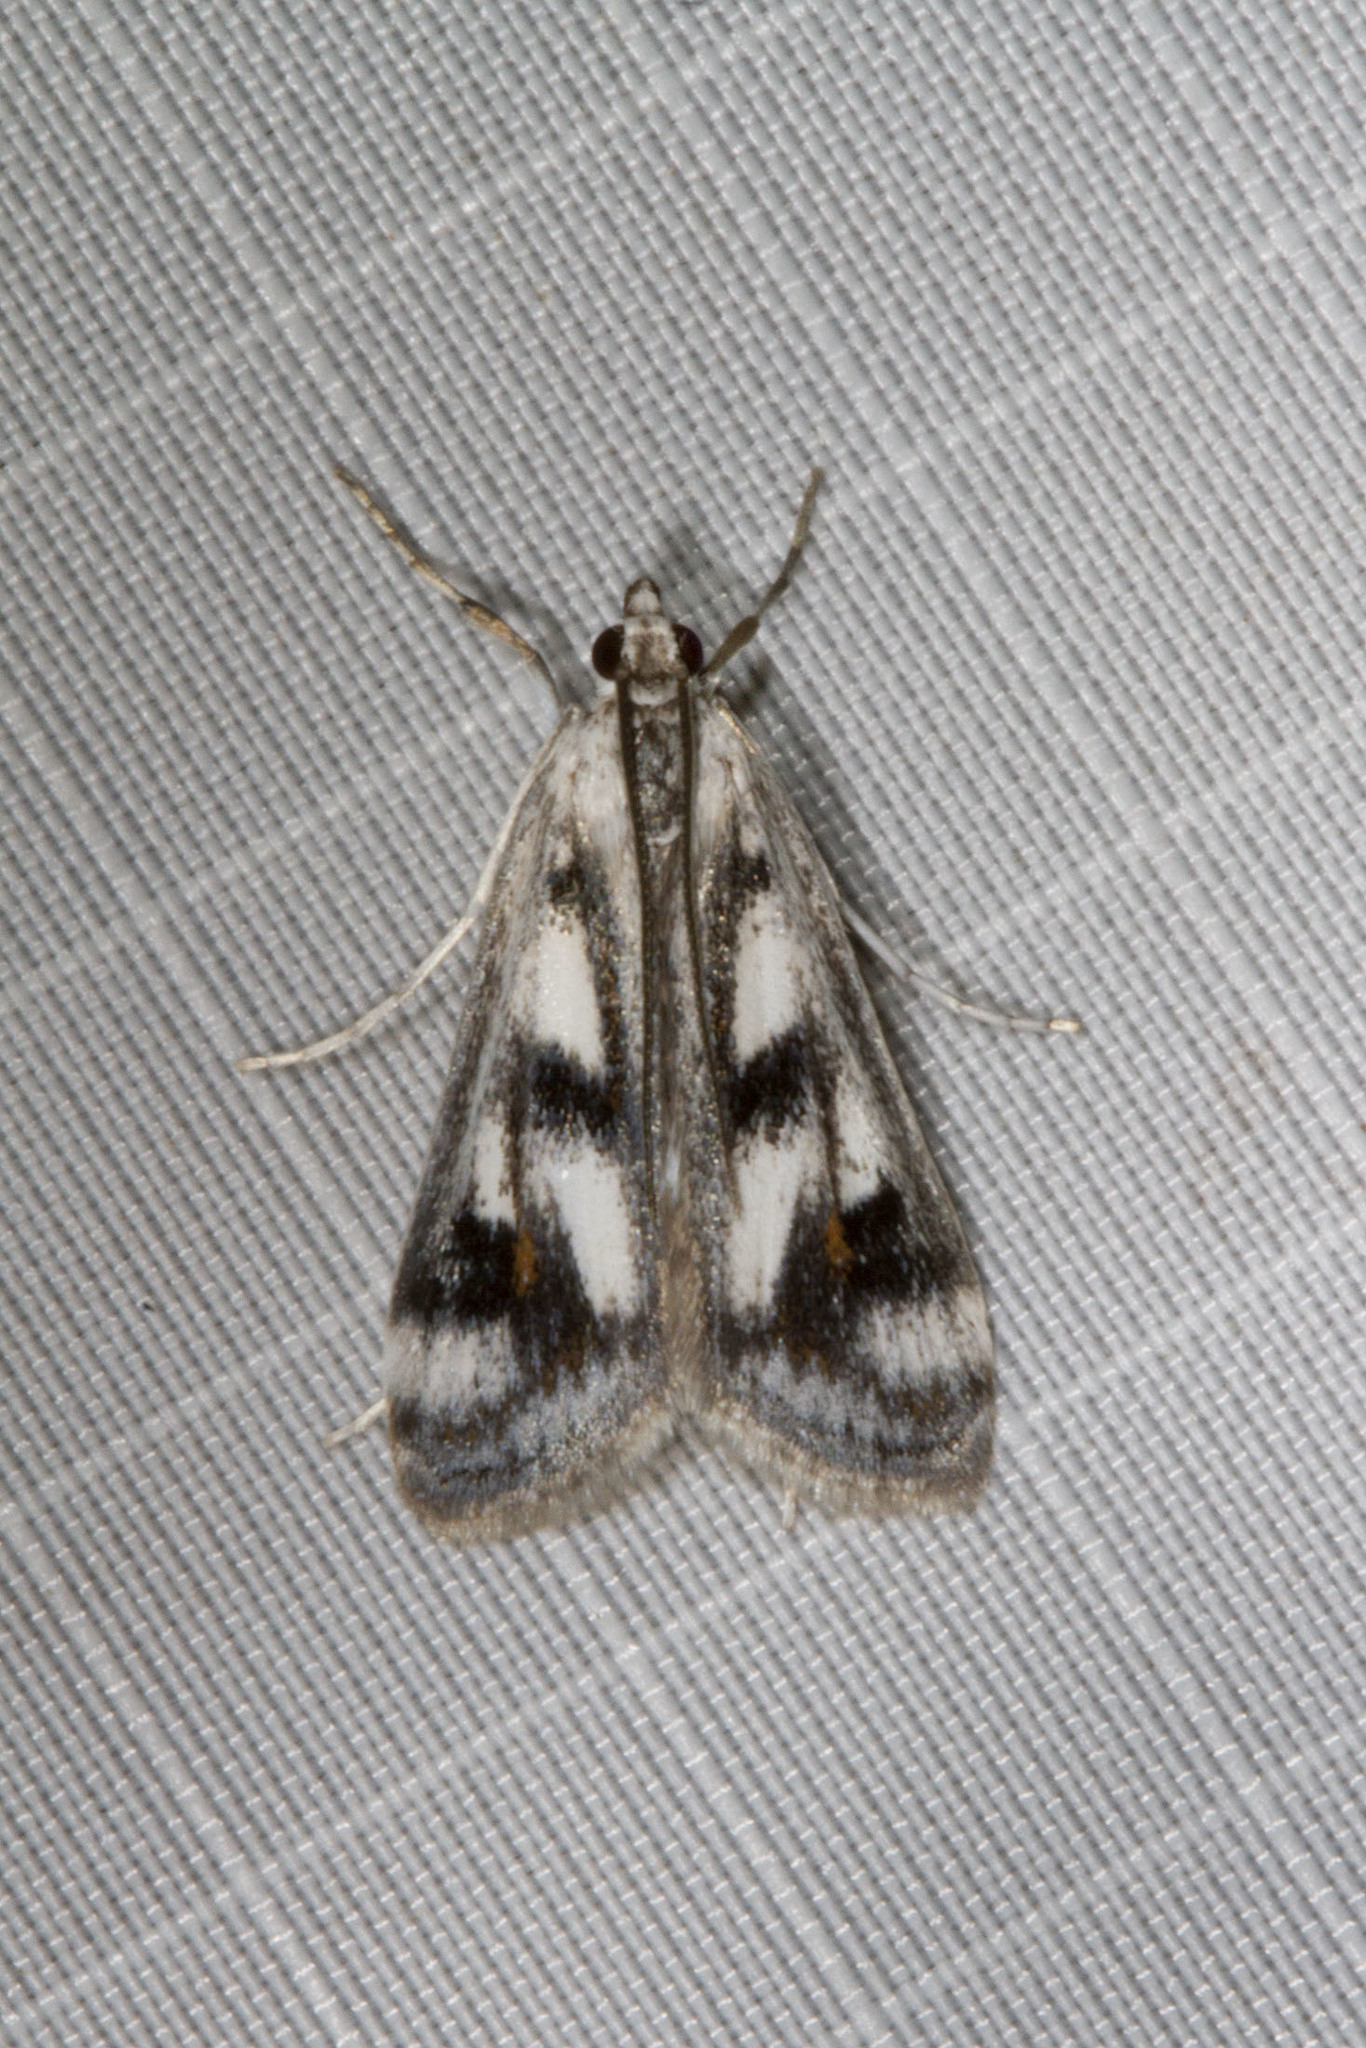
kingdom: Animalia
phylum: Arthropoda
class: Insecta
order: Lepidoptera
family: Crambidae
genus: Parapoynx
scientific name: Parapoynx maculalis
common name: Polymorphic pondweed moth
